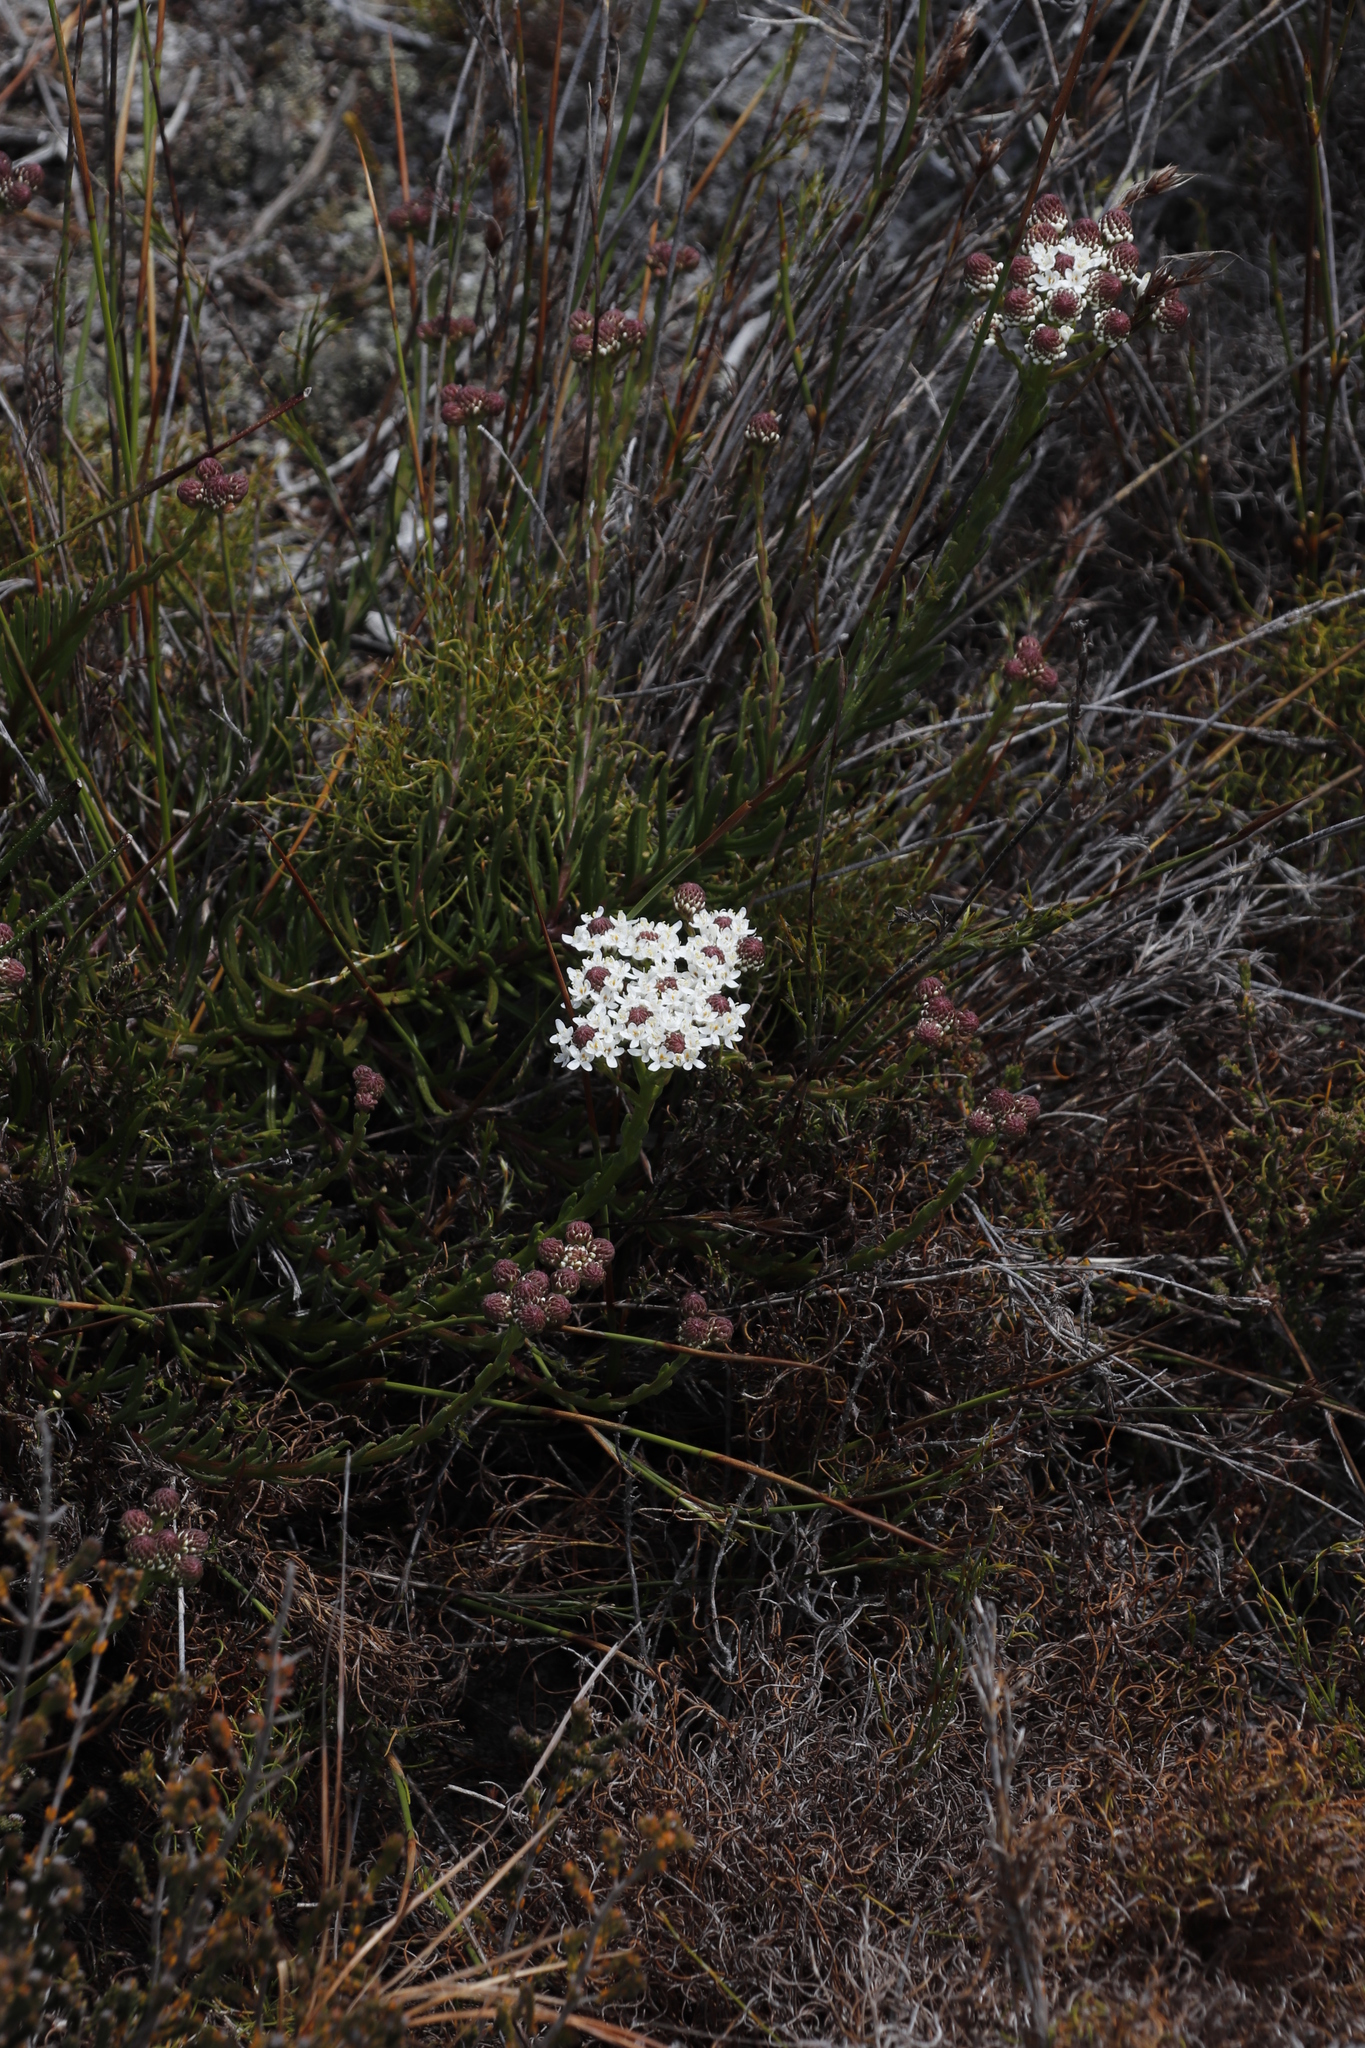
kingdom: Plantae
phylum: Tracheophyta
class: Magnoliopsida
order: Lamiales
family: Scrophulariaceae
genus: Pseudoselago
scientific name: Pseudoselago spuria
